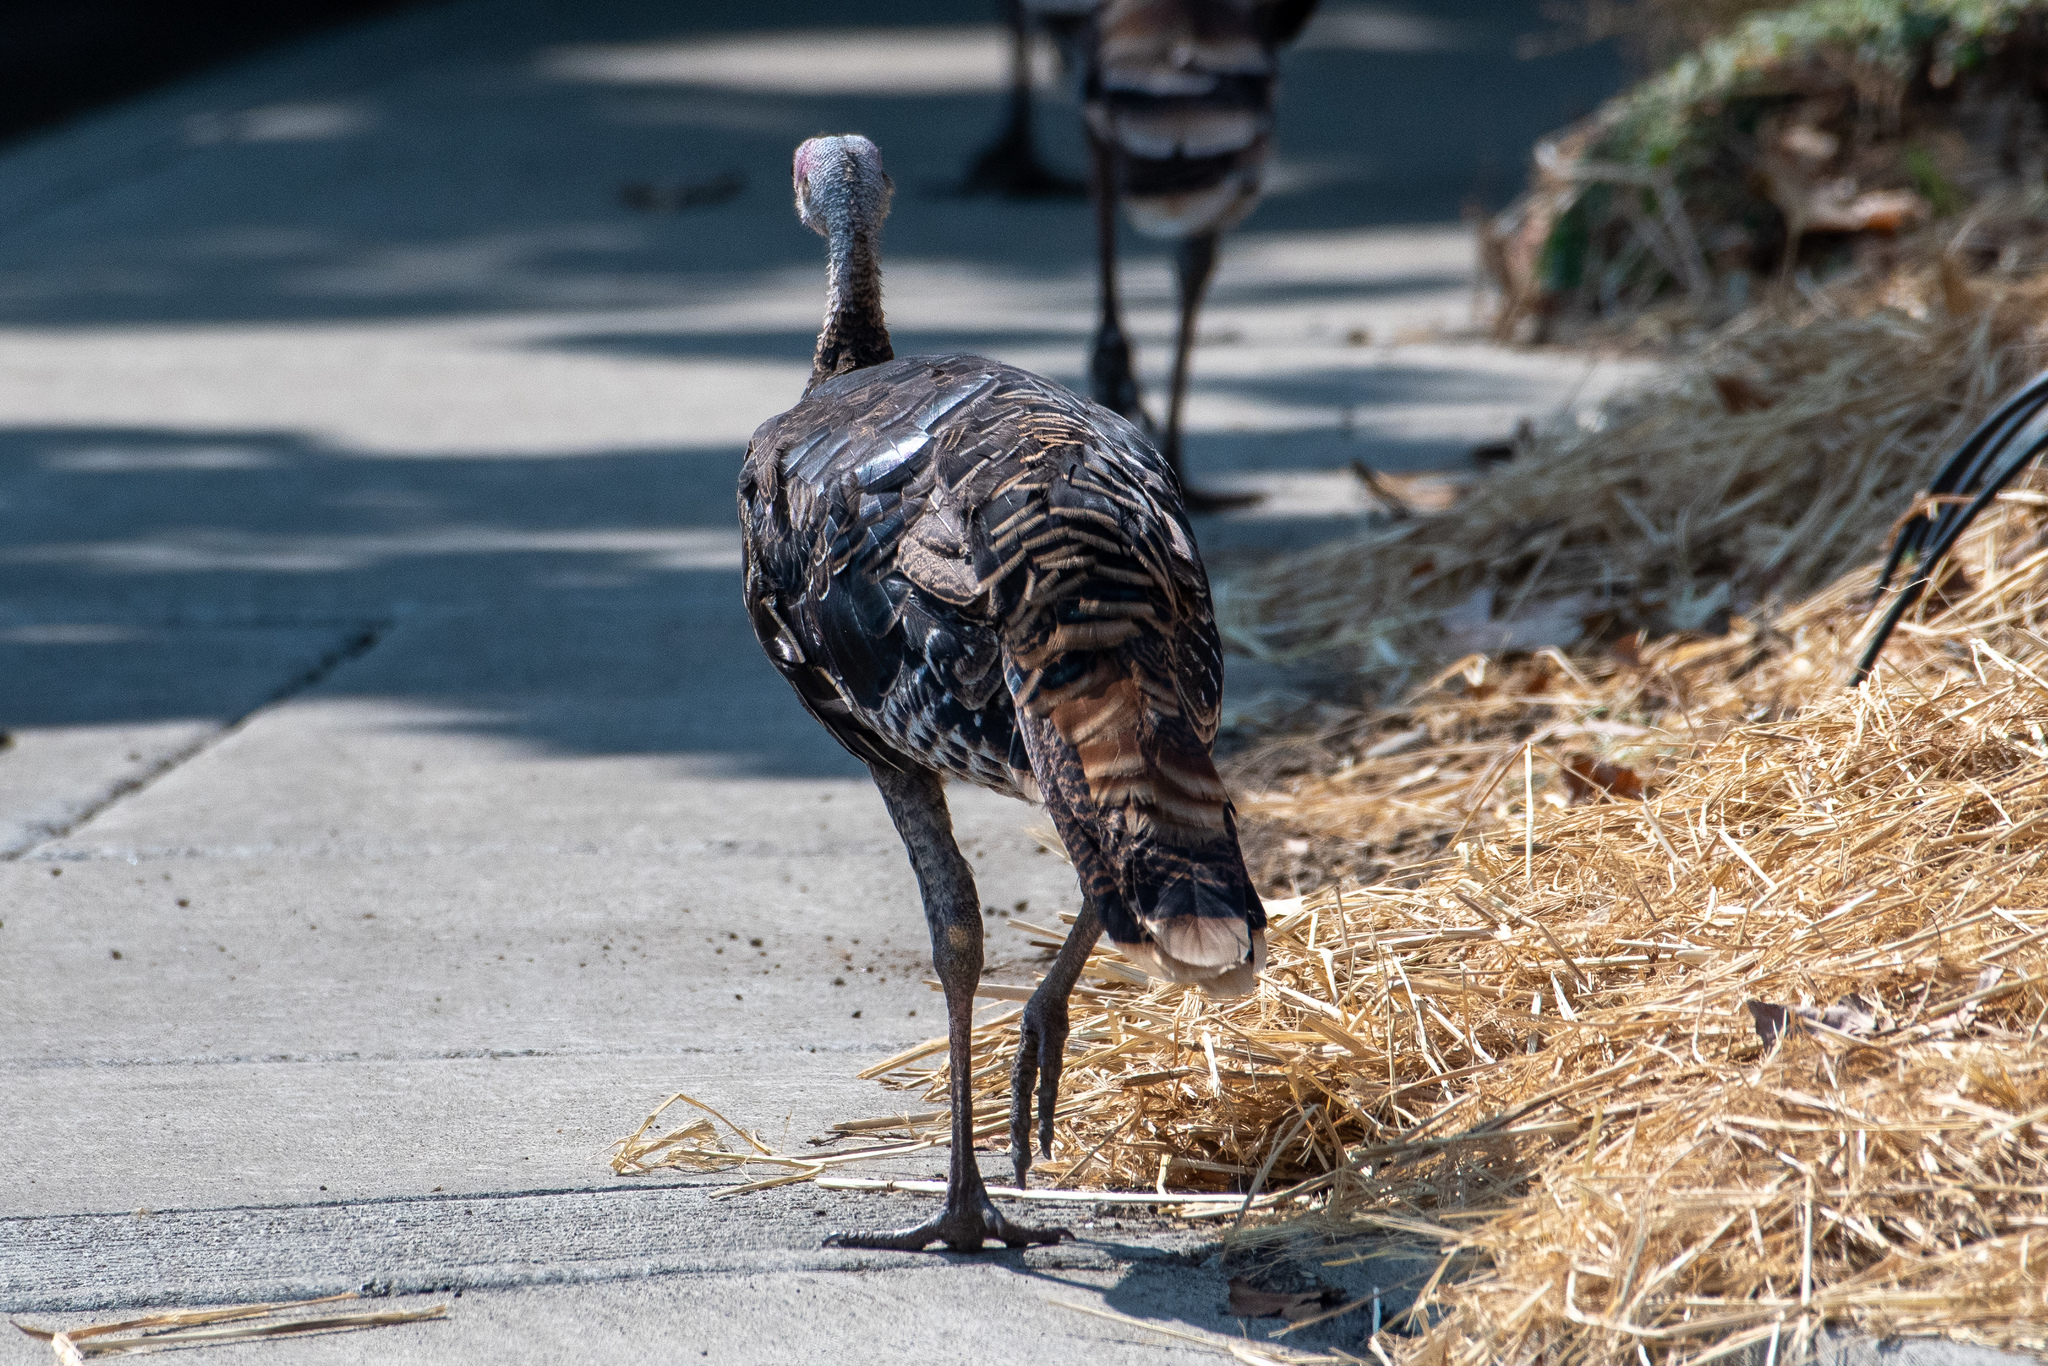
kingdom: Animalia
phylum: Chordata
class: Aves
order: Galliformes
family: Phasianidae
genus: Meleagris
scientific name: Meleagris gallopavo
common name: Wild turkey
